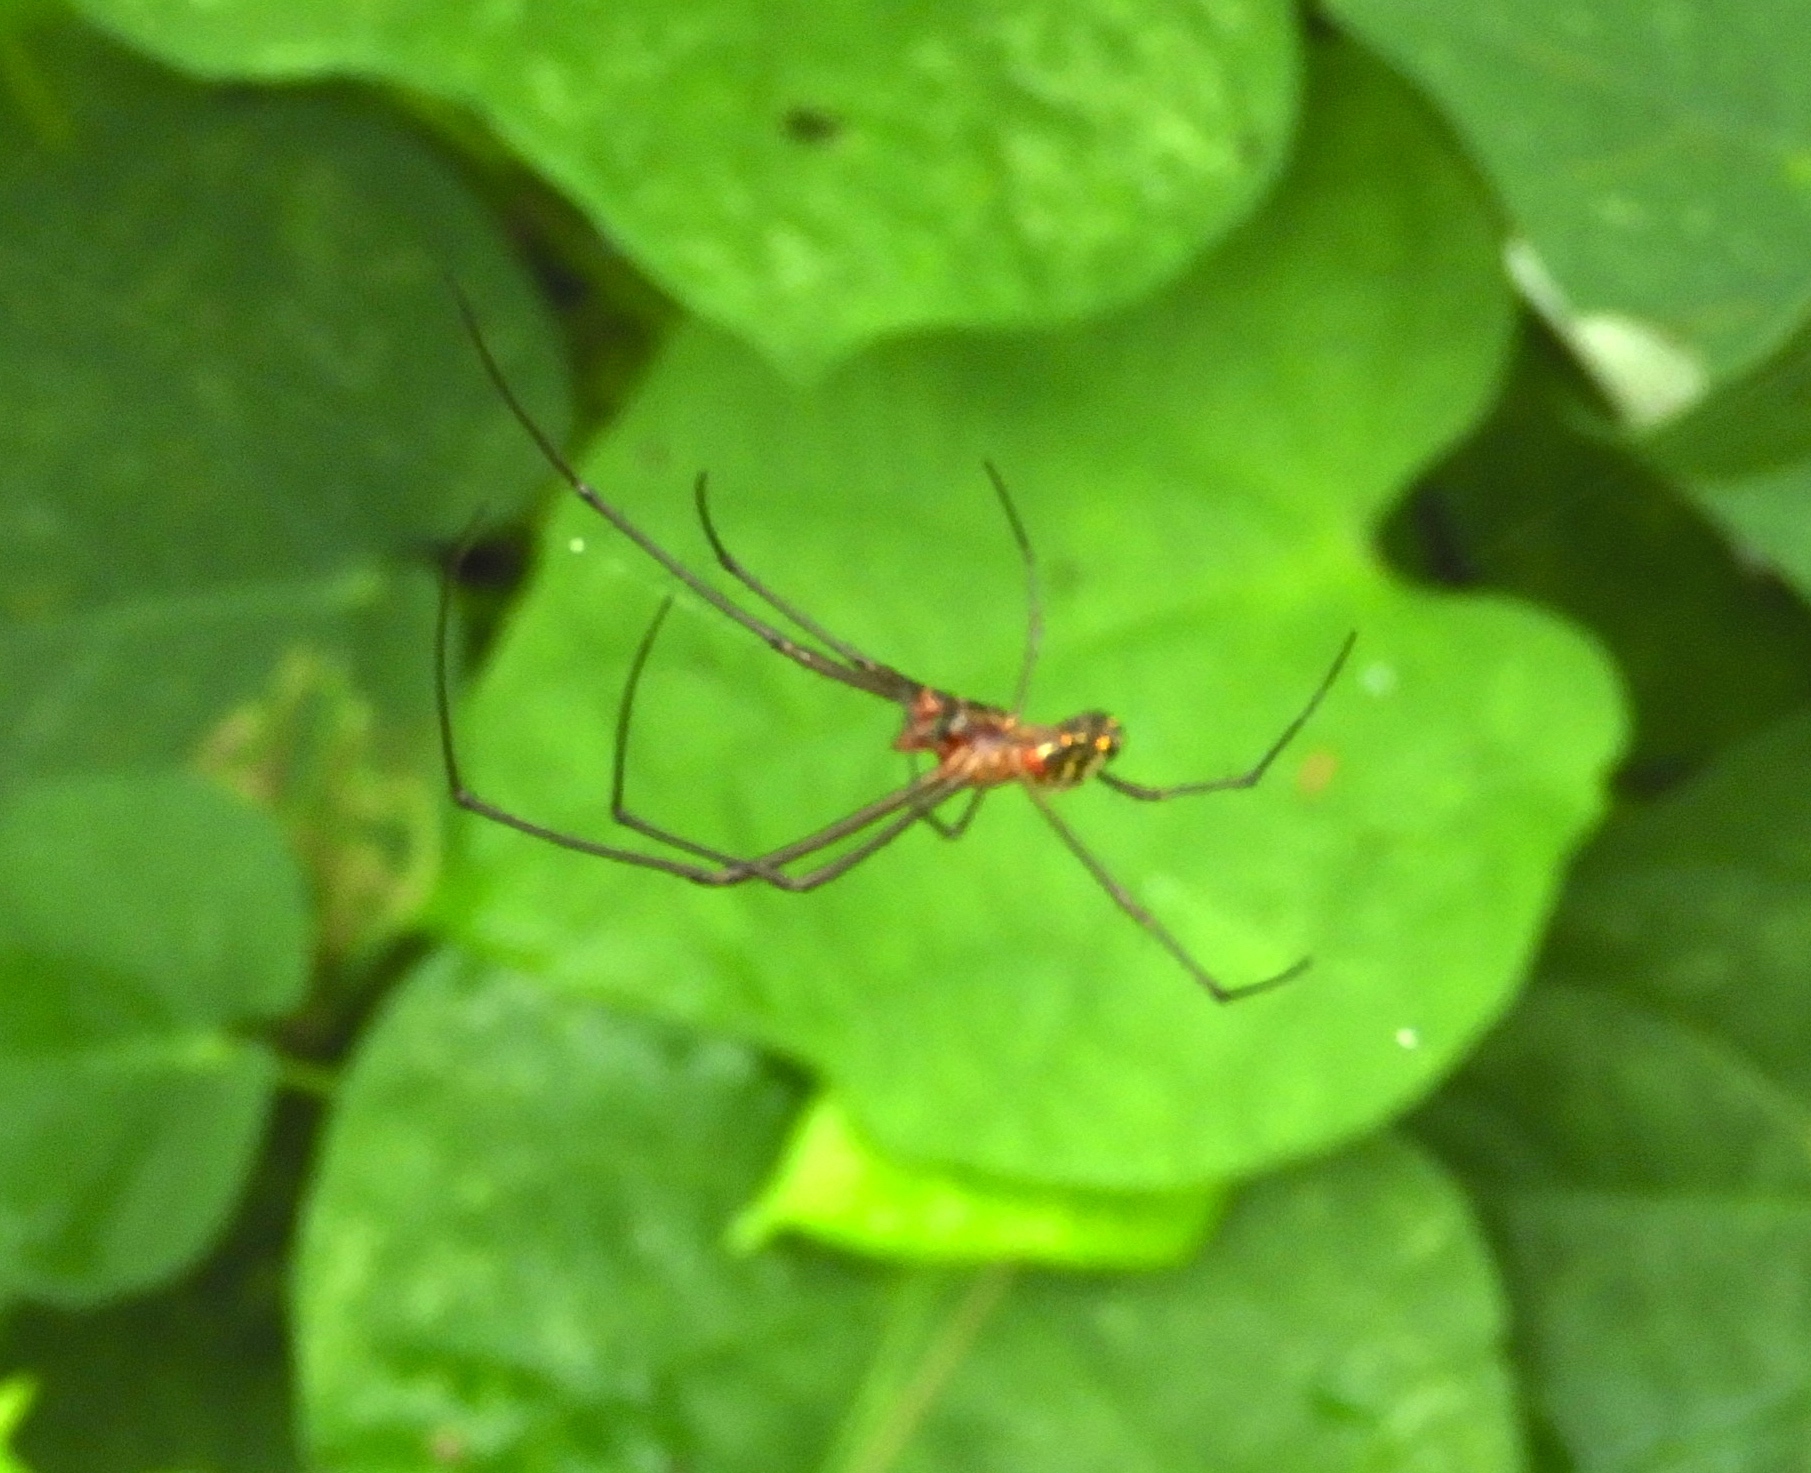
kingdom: Animalia
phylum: Arthropoda
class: Arachnida
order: Araneae
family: Tetragnathidae
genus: Leucauge
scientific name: Leucauge
